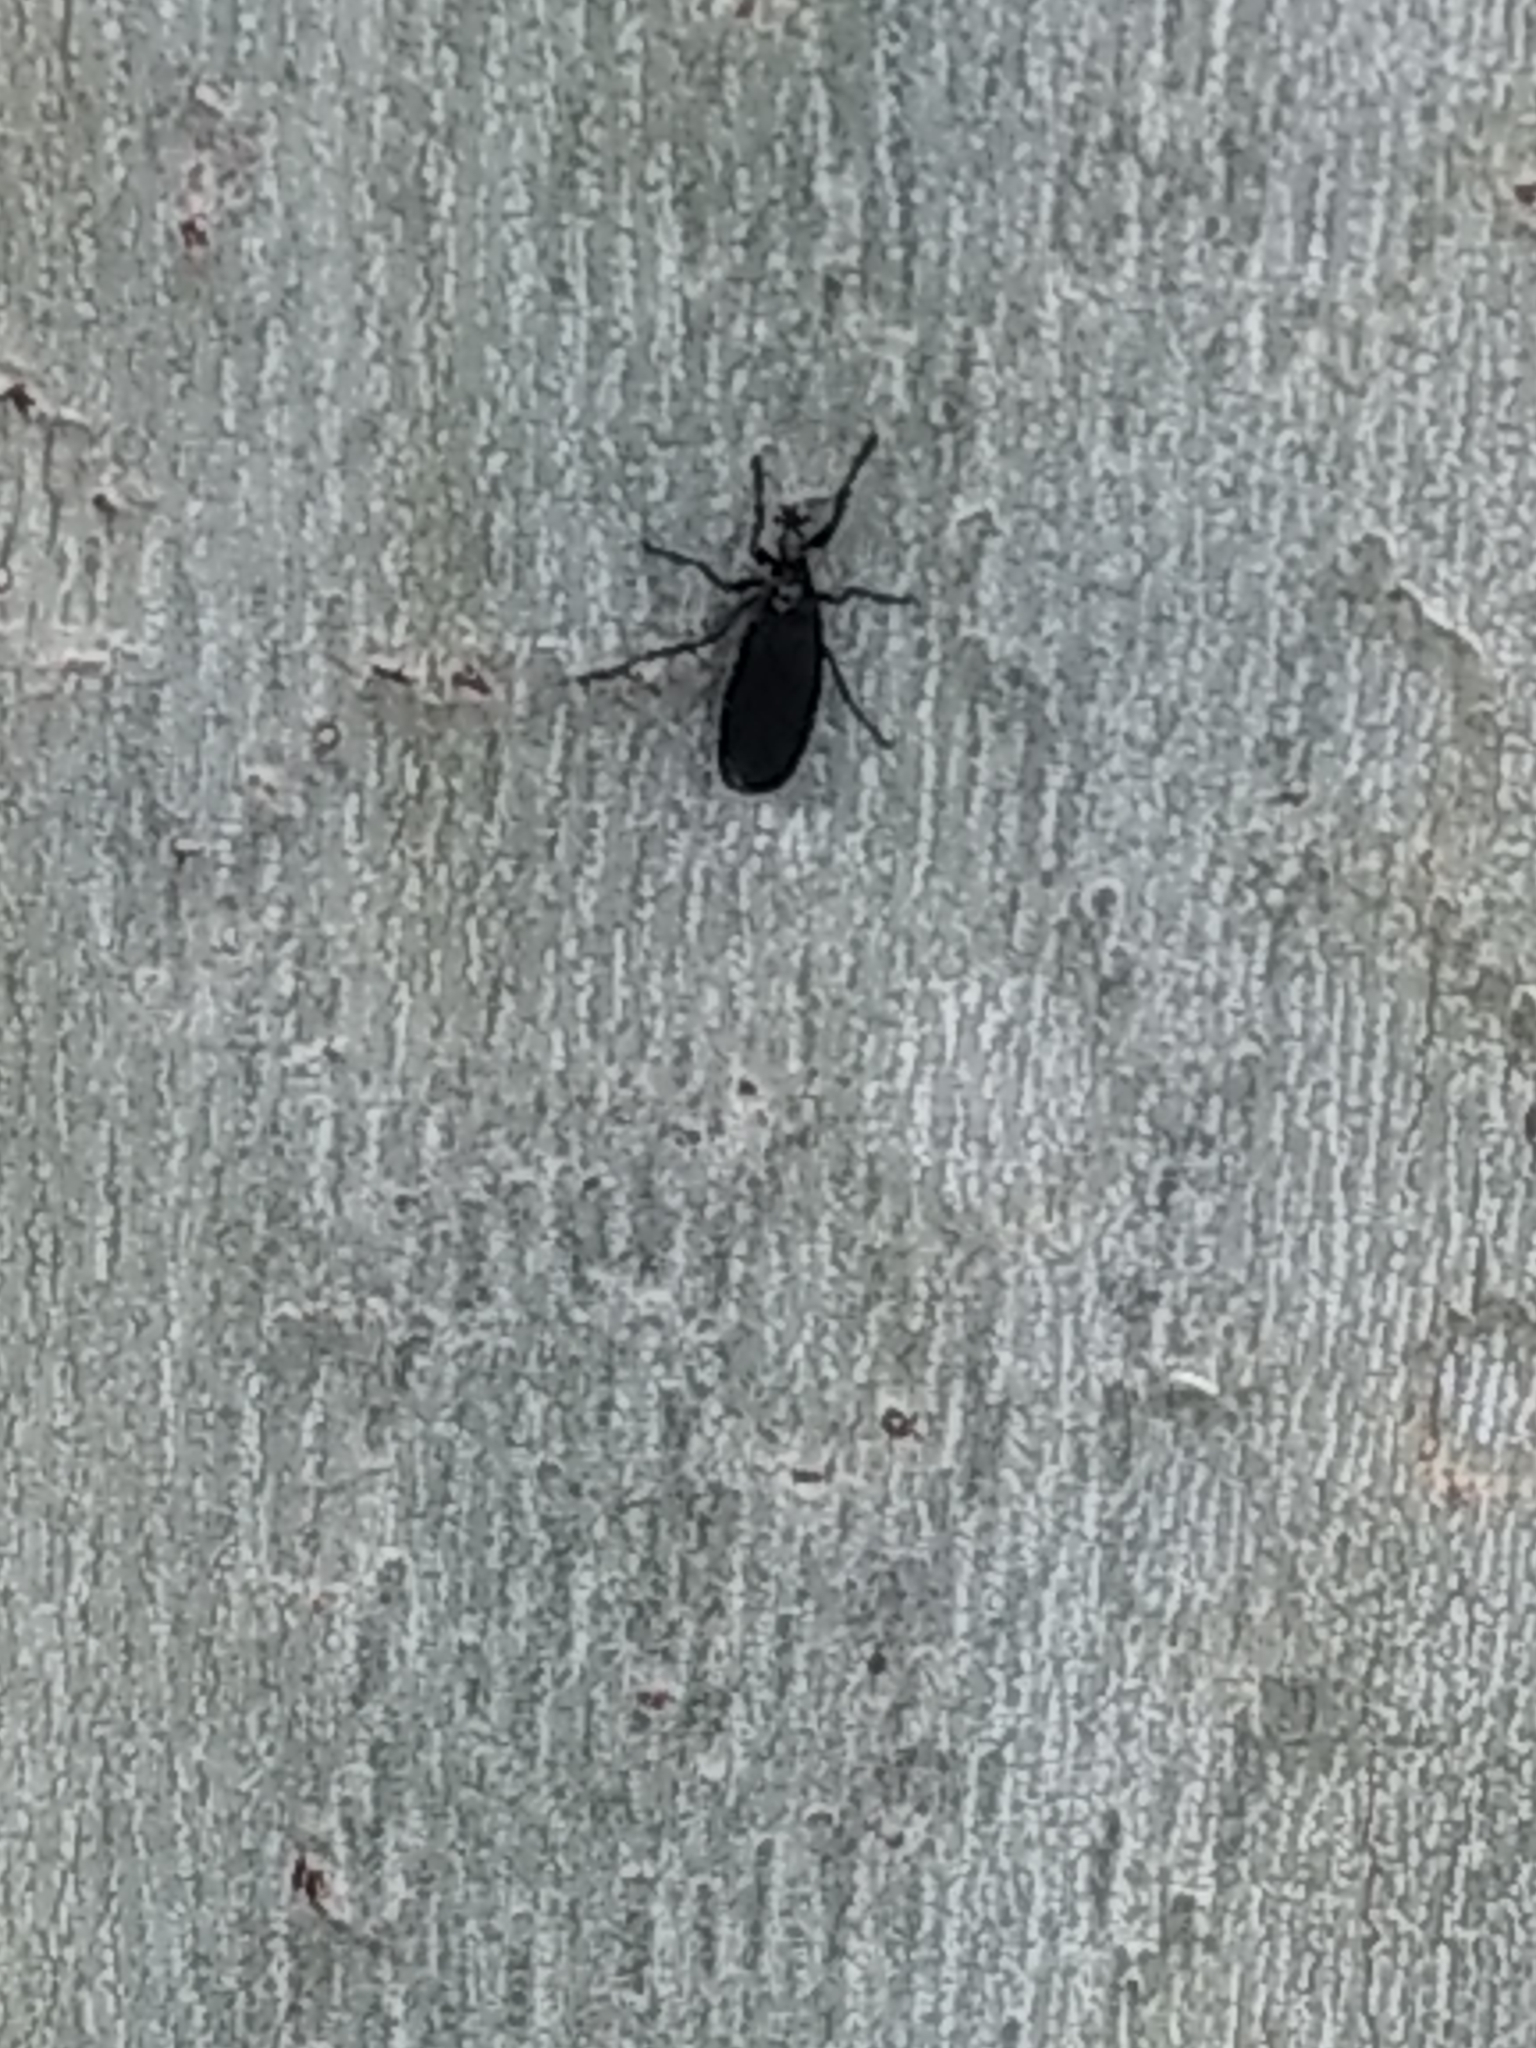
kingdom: Animalia
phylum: Arthropoda
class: Insecta
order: Diptera
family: Bibionidae
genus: Dilophus
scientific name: Dilophus orbatus
